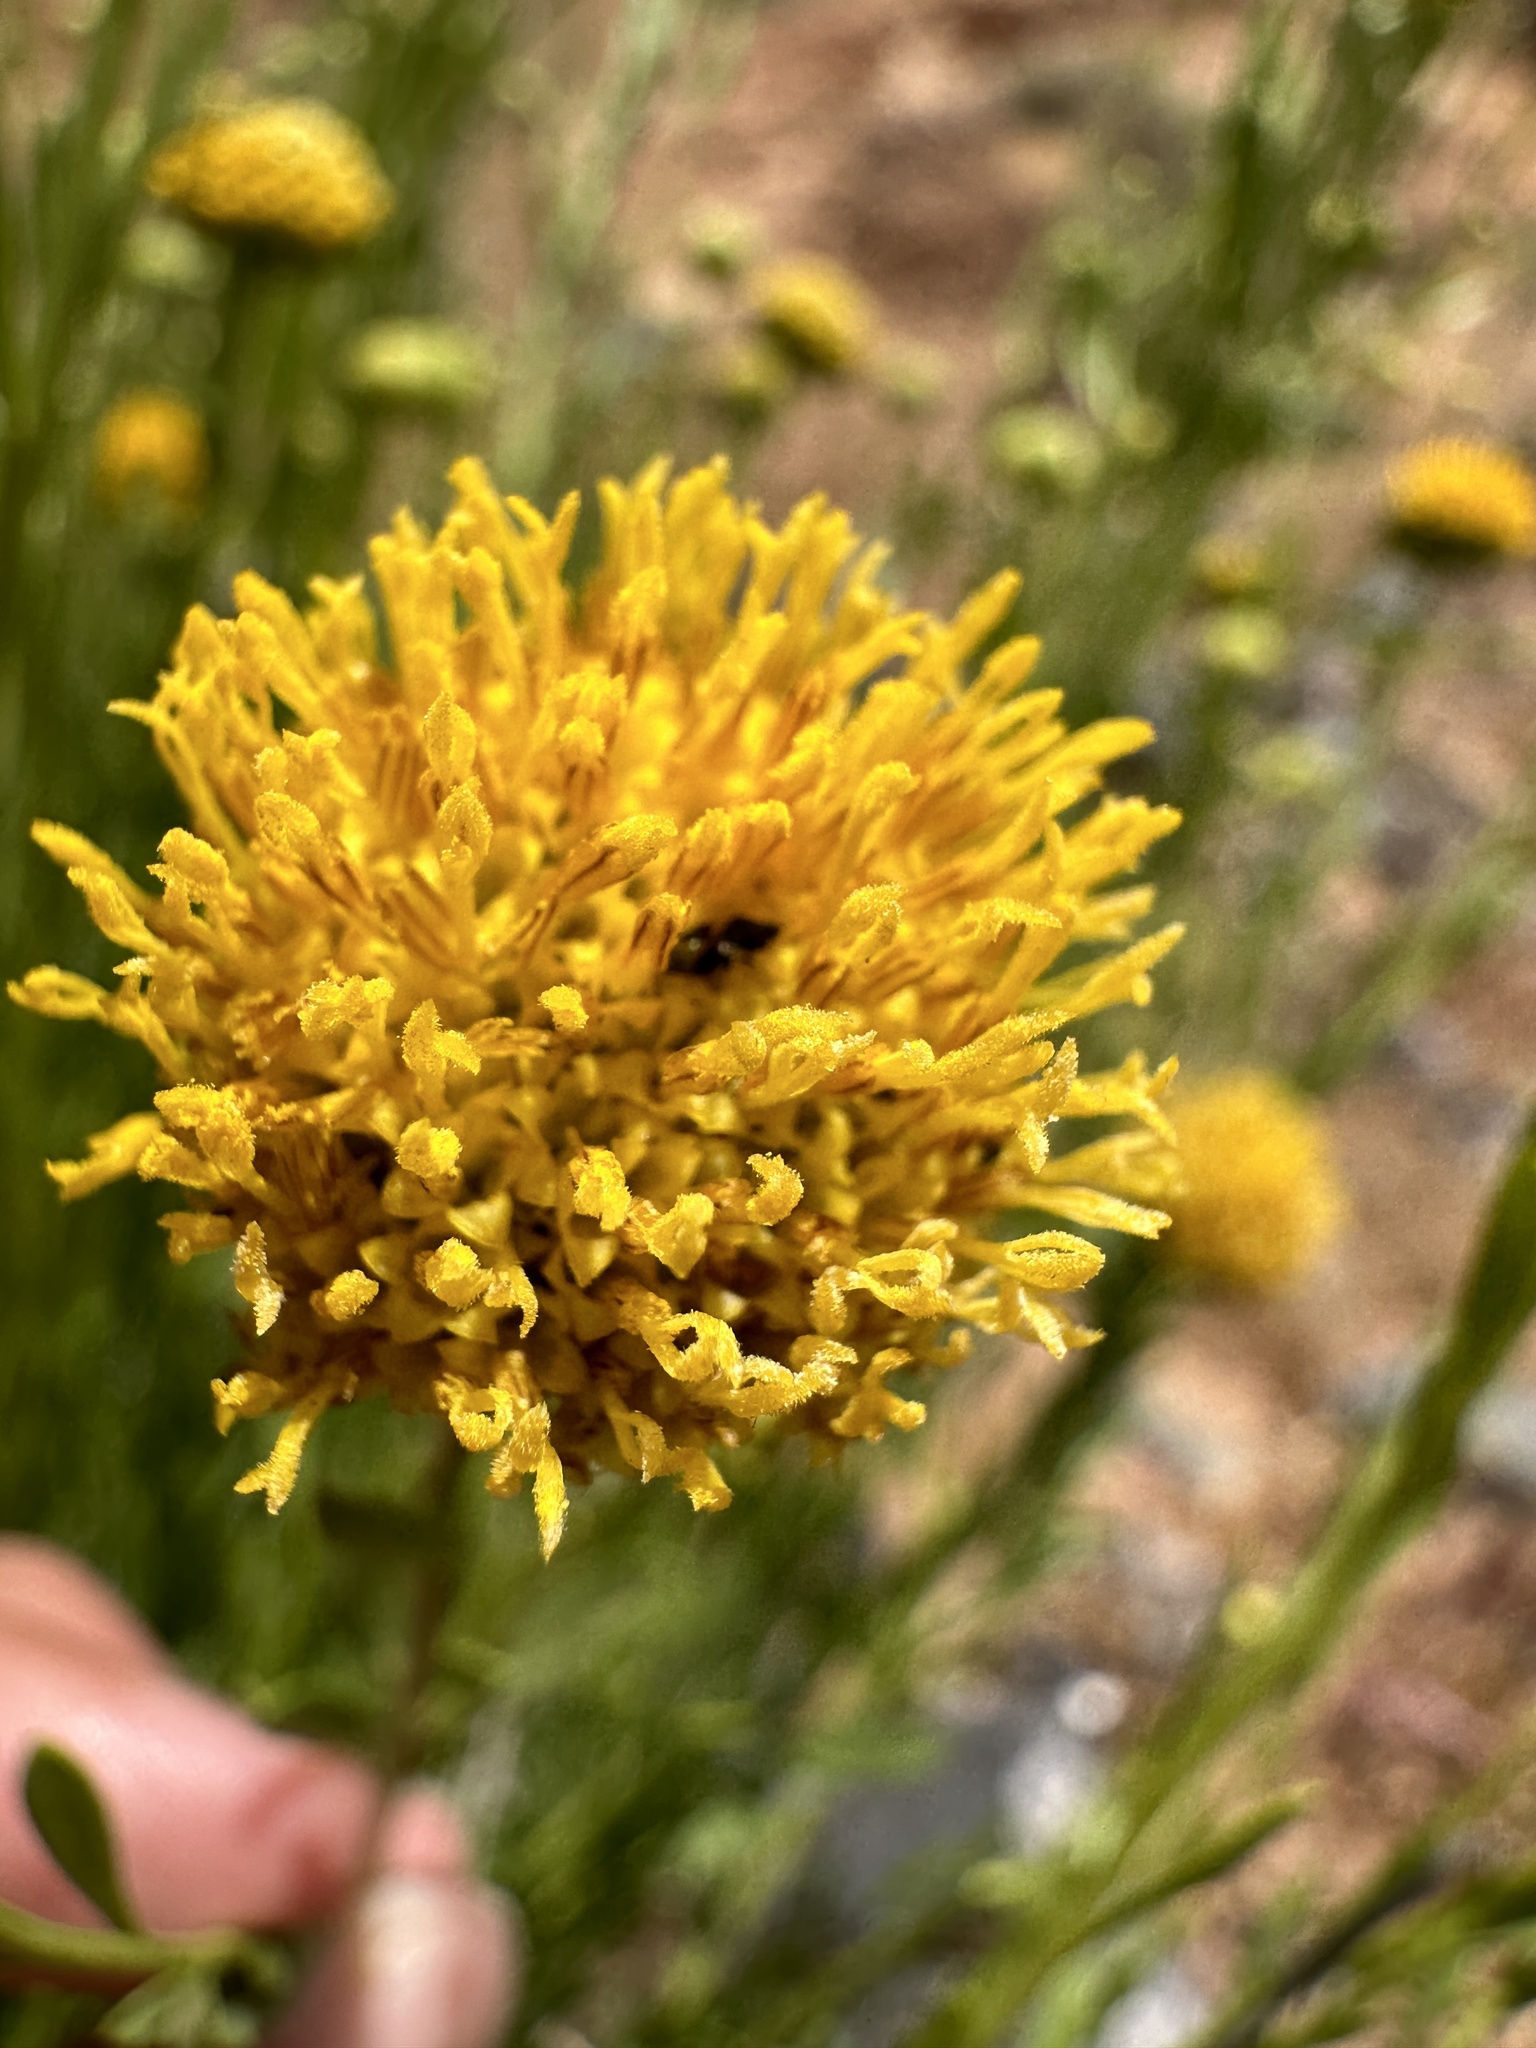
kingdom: Plantae
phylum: Tracheophyta
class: Magnoliopsida
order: Asterales
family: Asteraceae
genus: Eastwoodia
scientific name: Eastwoodia elegans
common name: Yellow-aster
